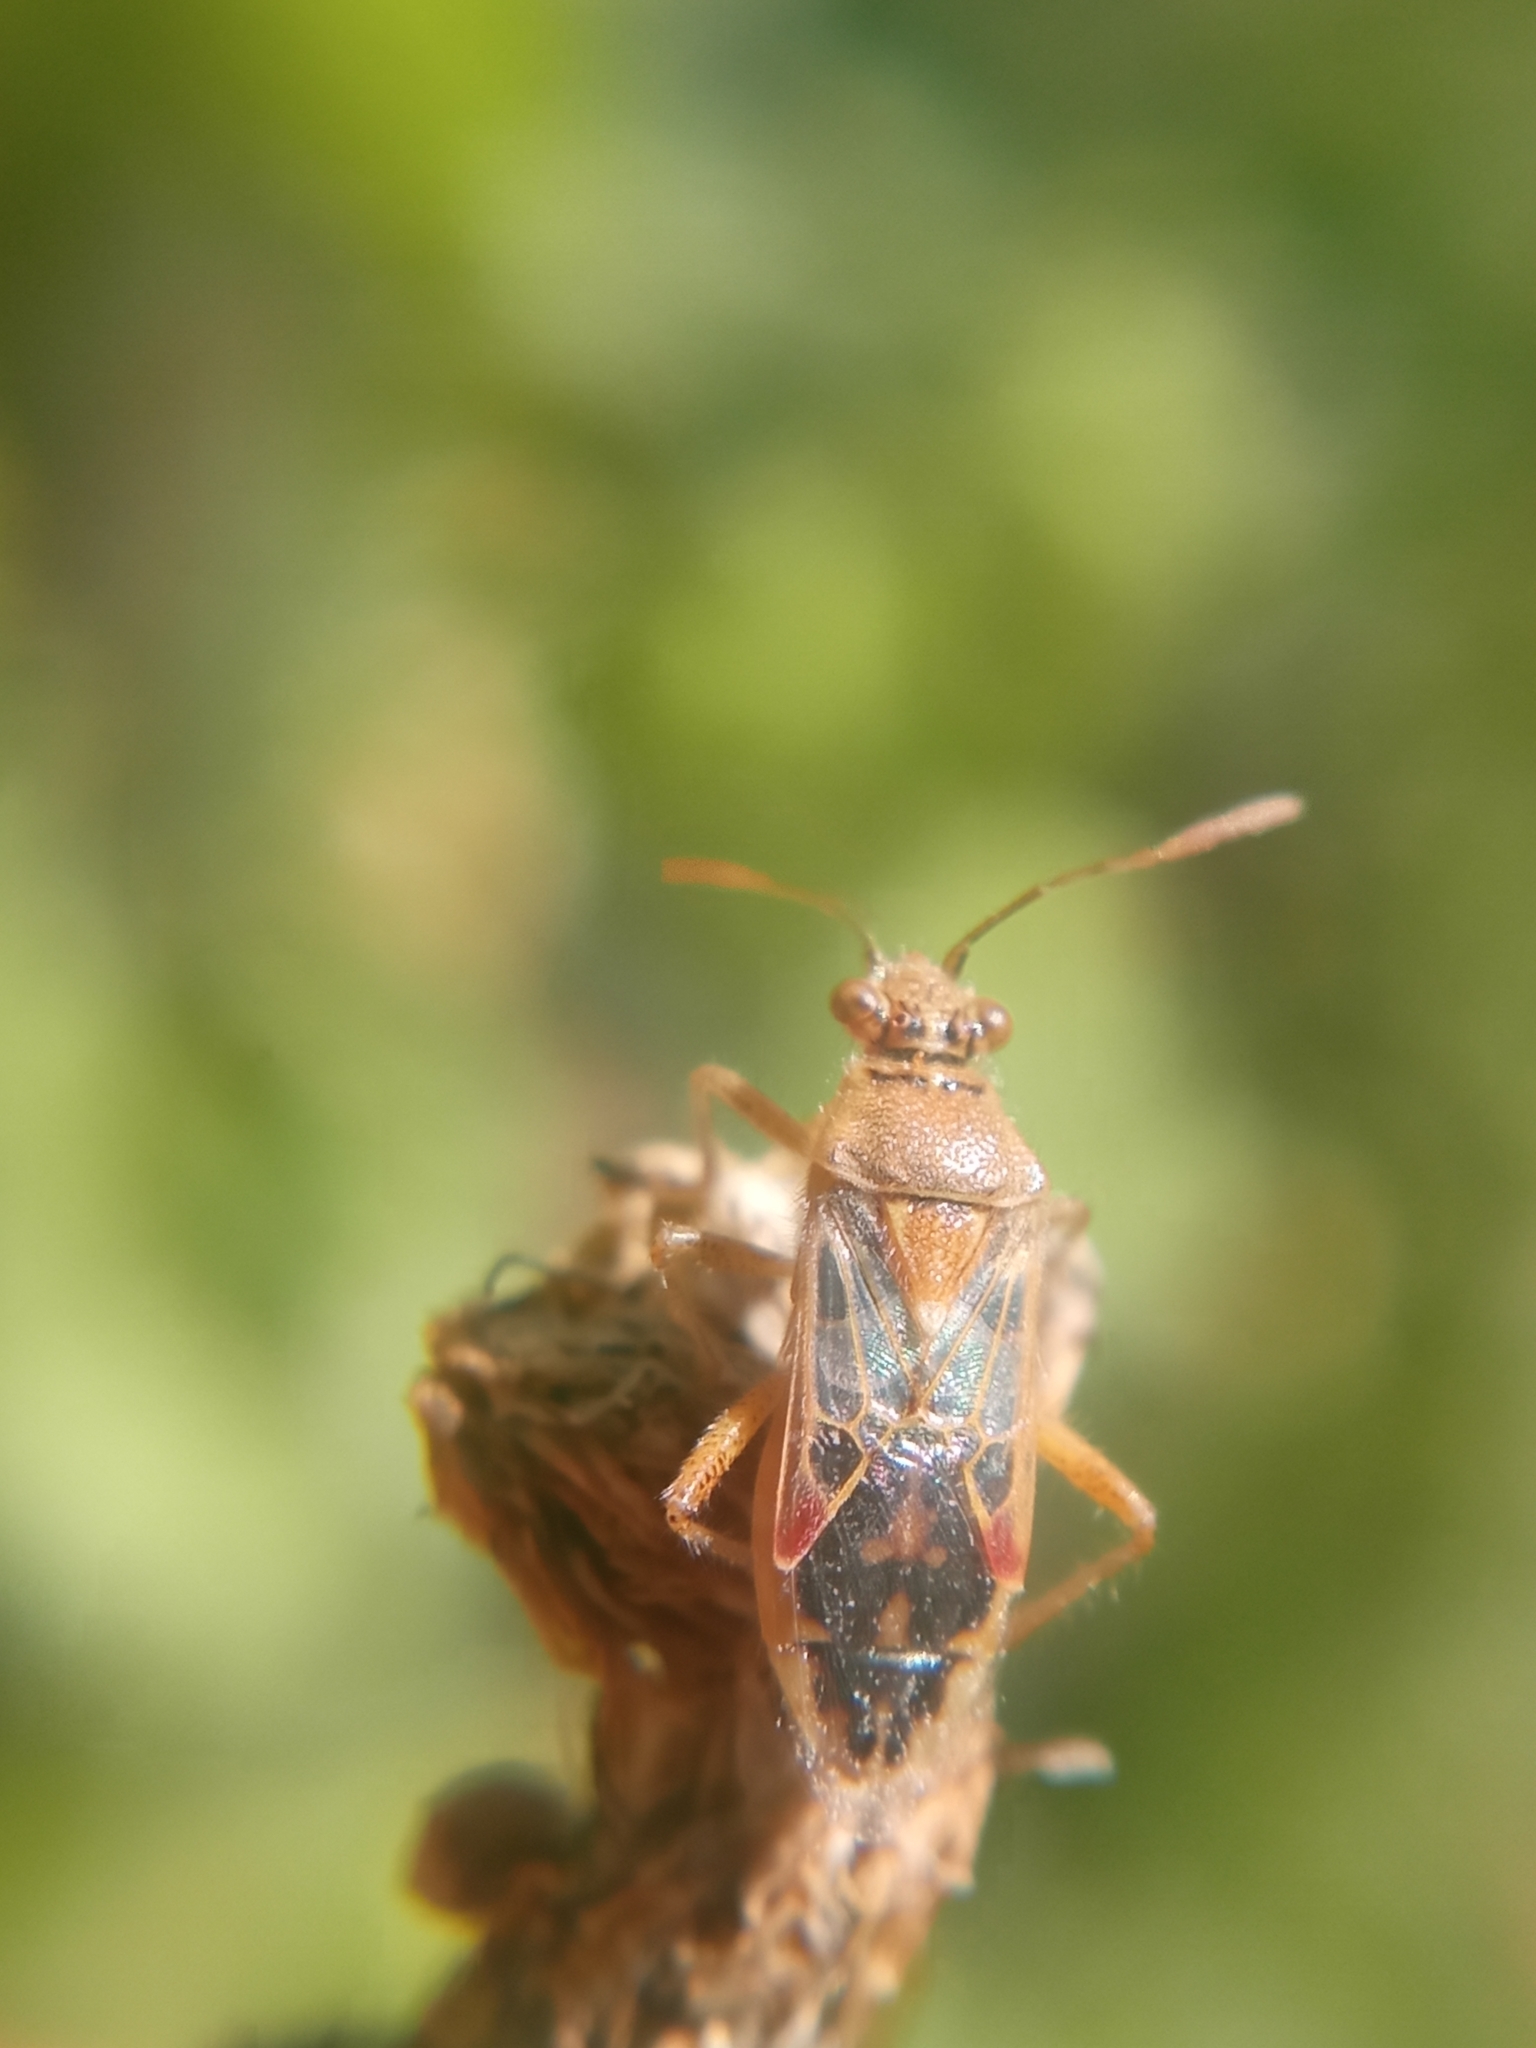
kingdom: Animalia
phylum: Arthropoda
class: Insecta
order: Hemiptera
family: Rhopalidae
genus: Liorhyssus
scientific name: Liorhyssus hyalinus
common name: Scentless plant bug
